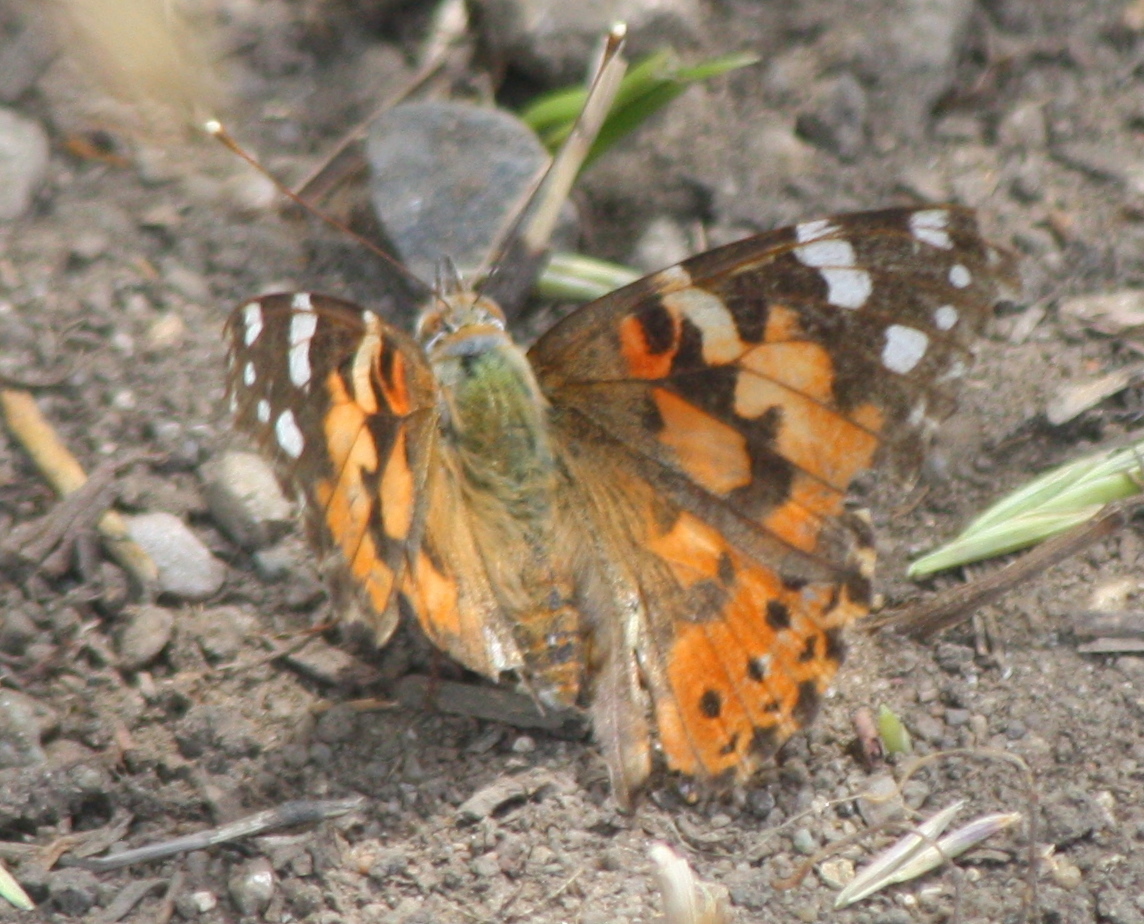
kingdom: Animalia
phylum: Arthropoda
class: Insecta
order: Lepidoptera
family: Nymphalidae
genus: Vanessa
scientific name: Vanessa cardui
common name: Painted lady
